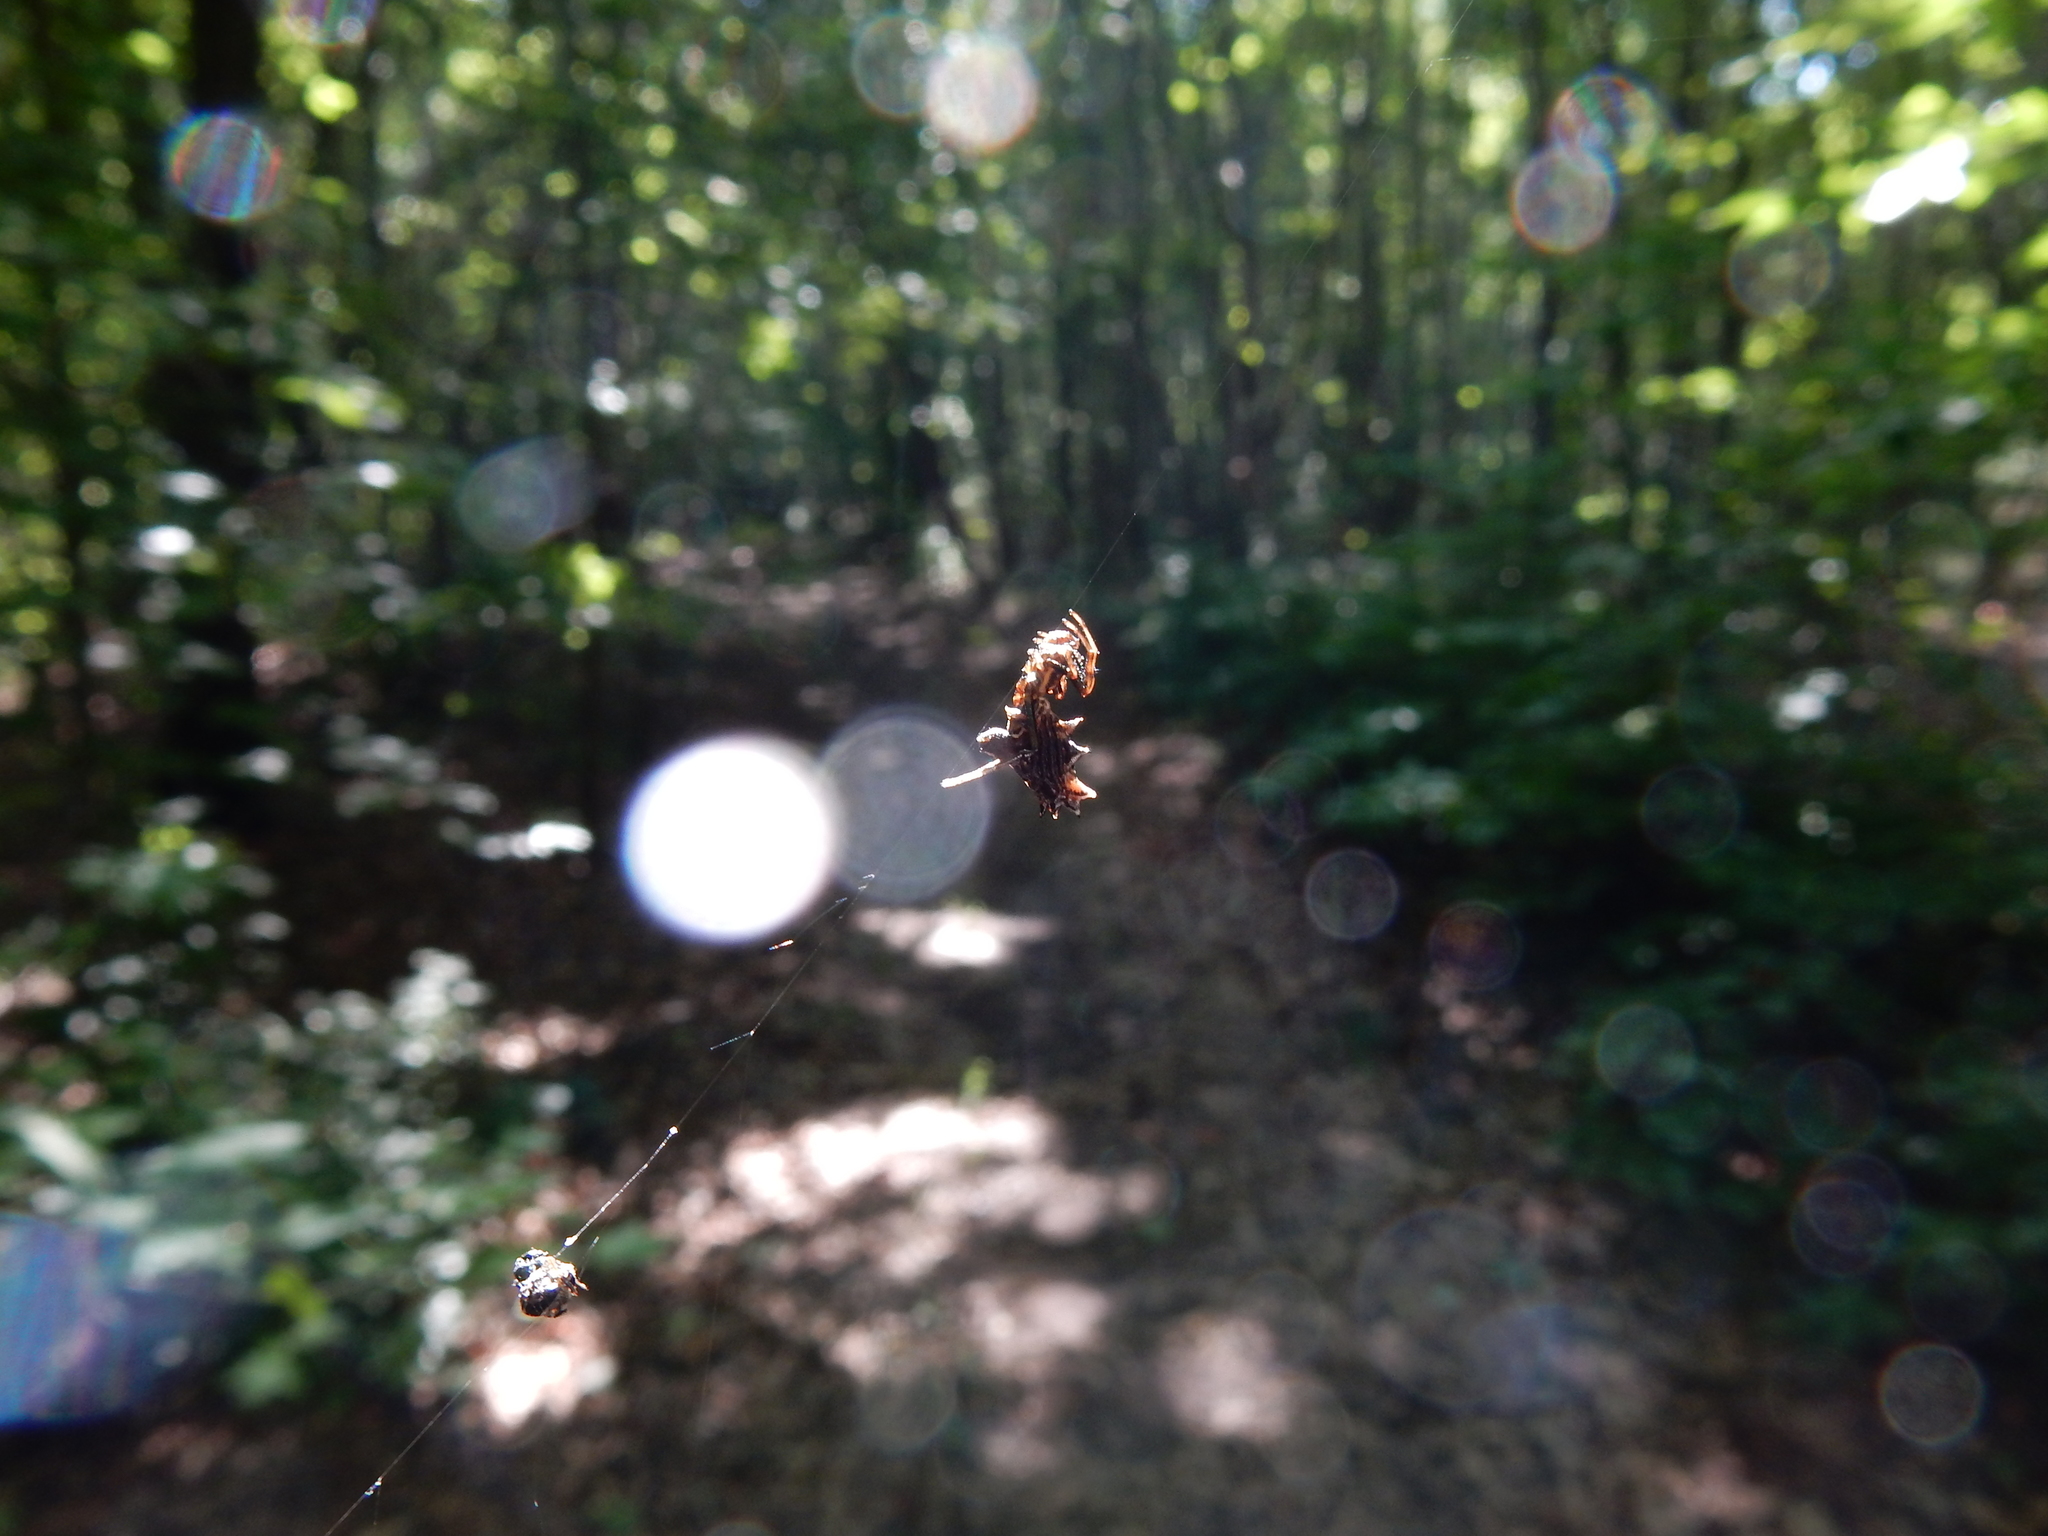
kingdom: Animalia
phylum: Arthropoda
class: Arachnida
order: Araneae
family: Araneidae
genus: Micrathena
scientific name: Micrathena gracilis
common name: Orb weavers
